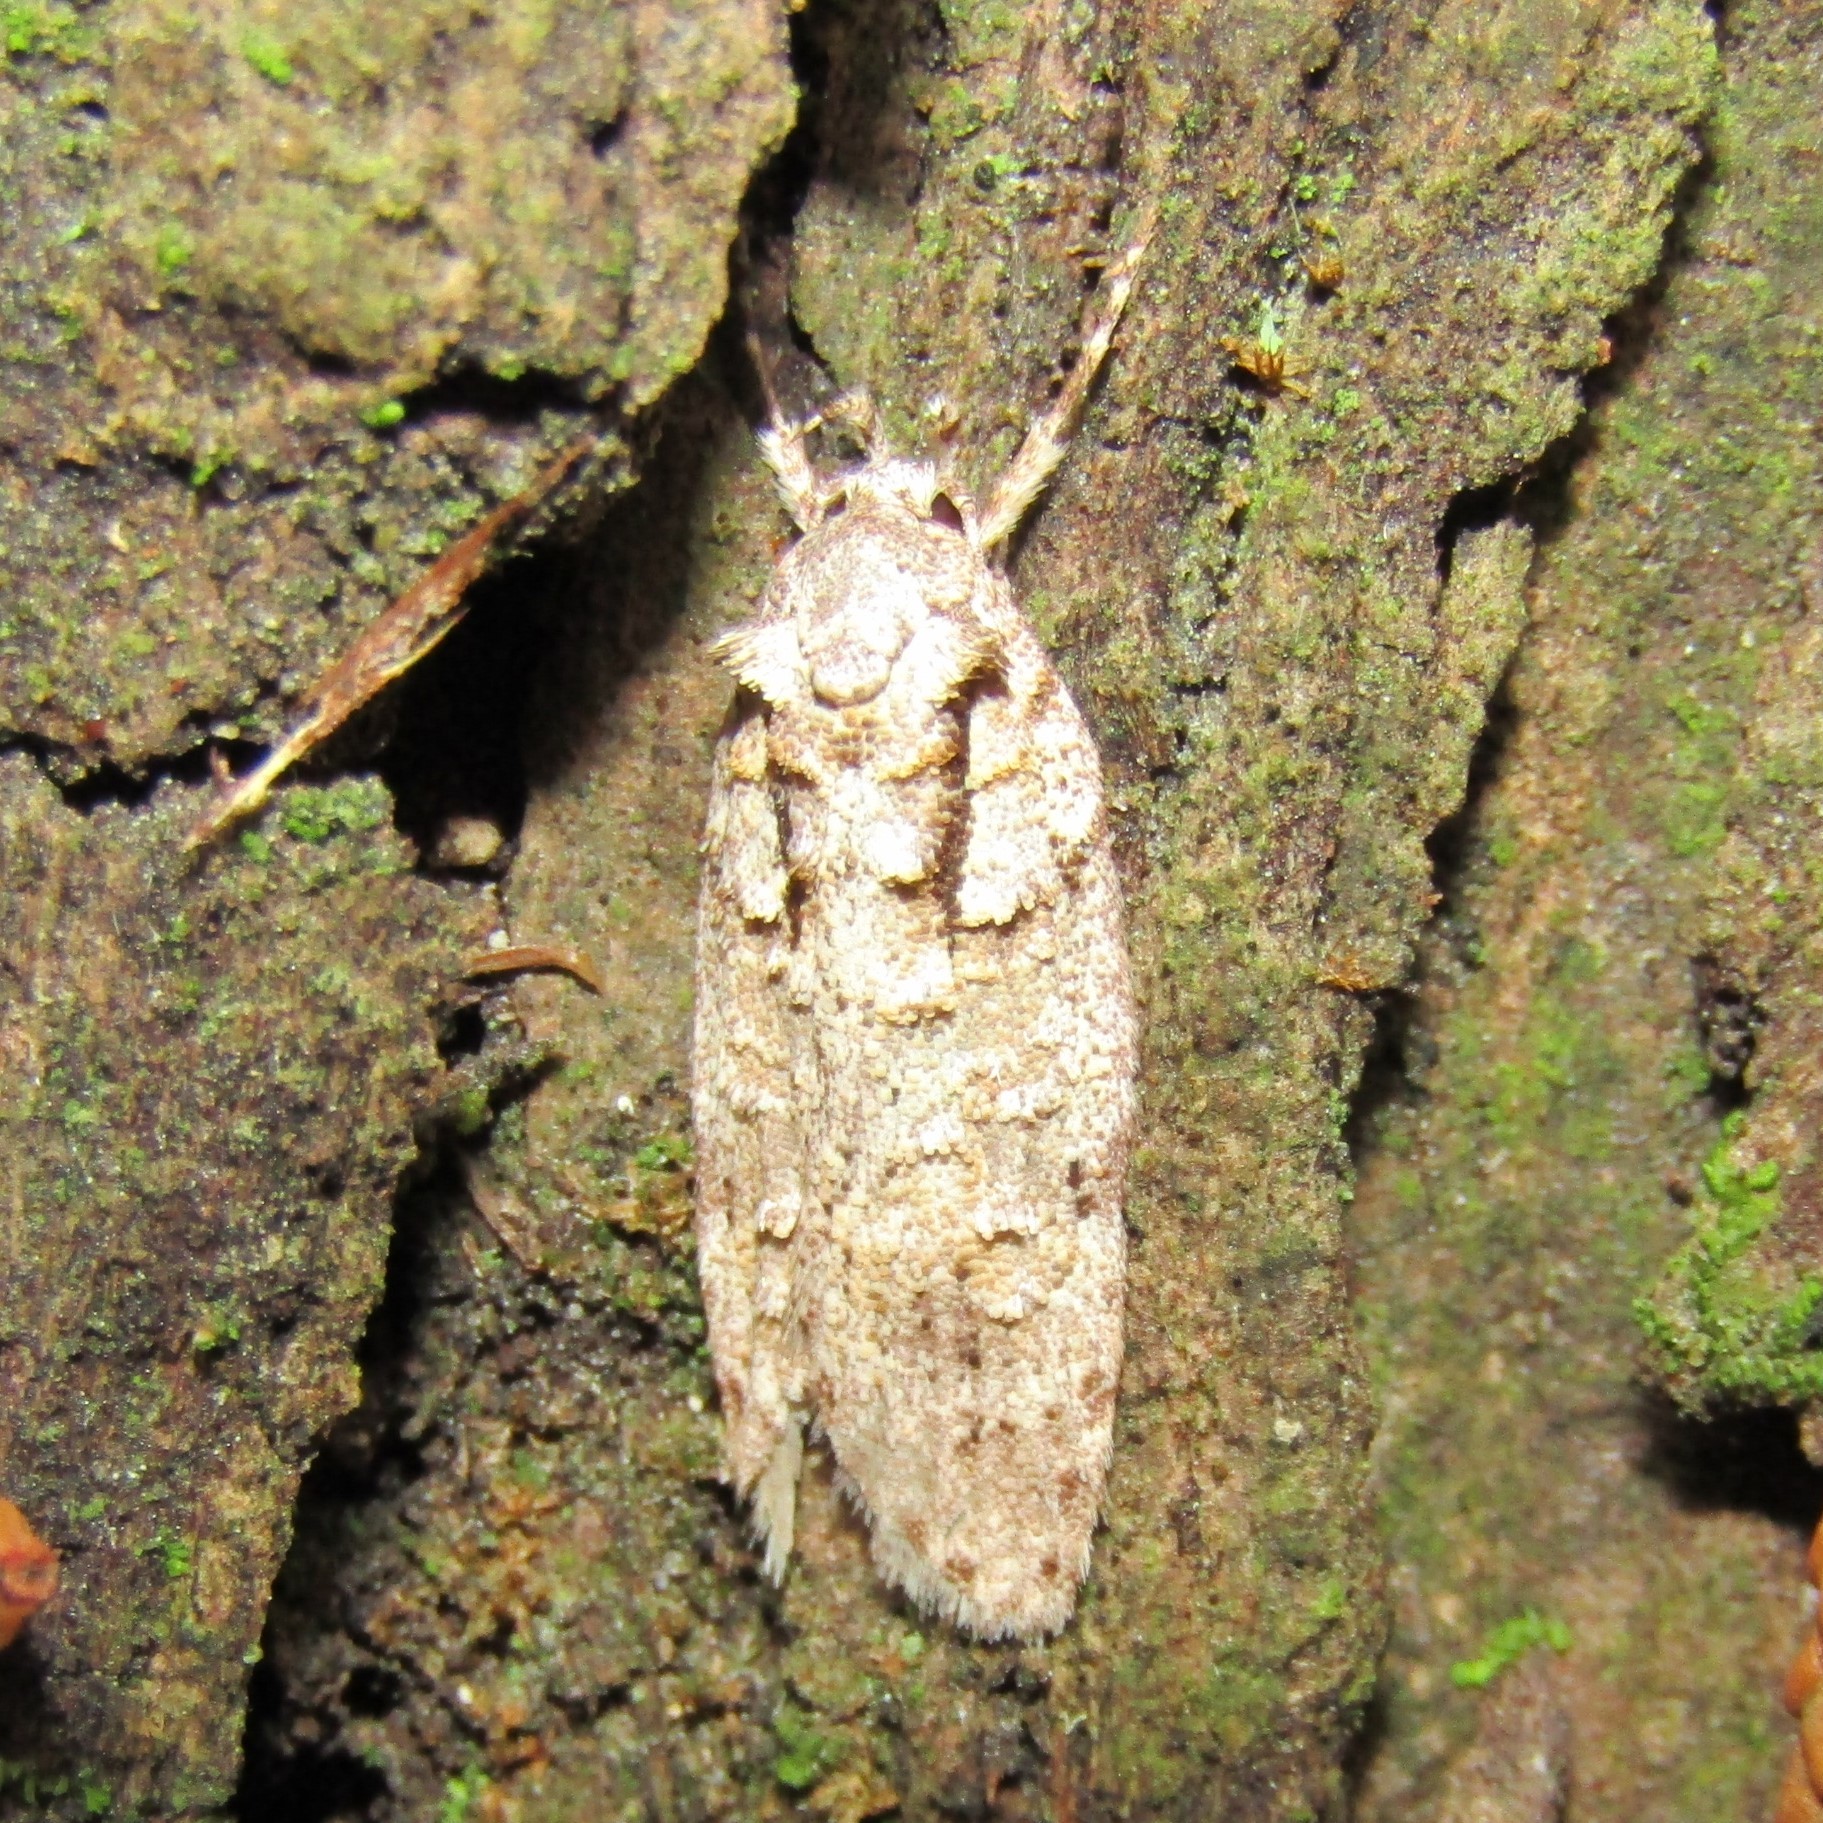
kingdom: Animalia
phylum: Arthropoda
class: Insecta
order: Lepidoptera
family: Oecophoridae
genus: Izatha
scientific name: Izatha attactella
